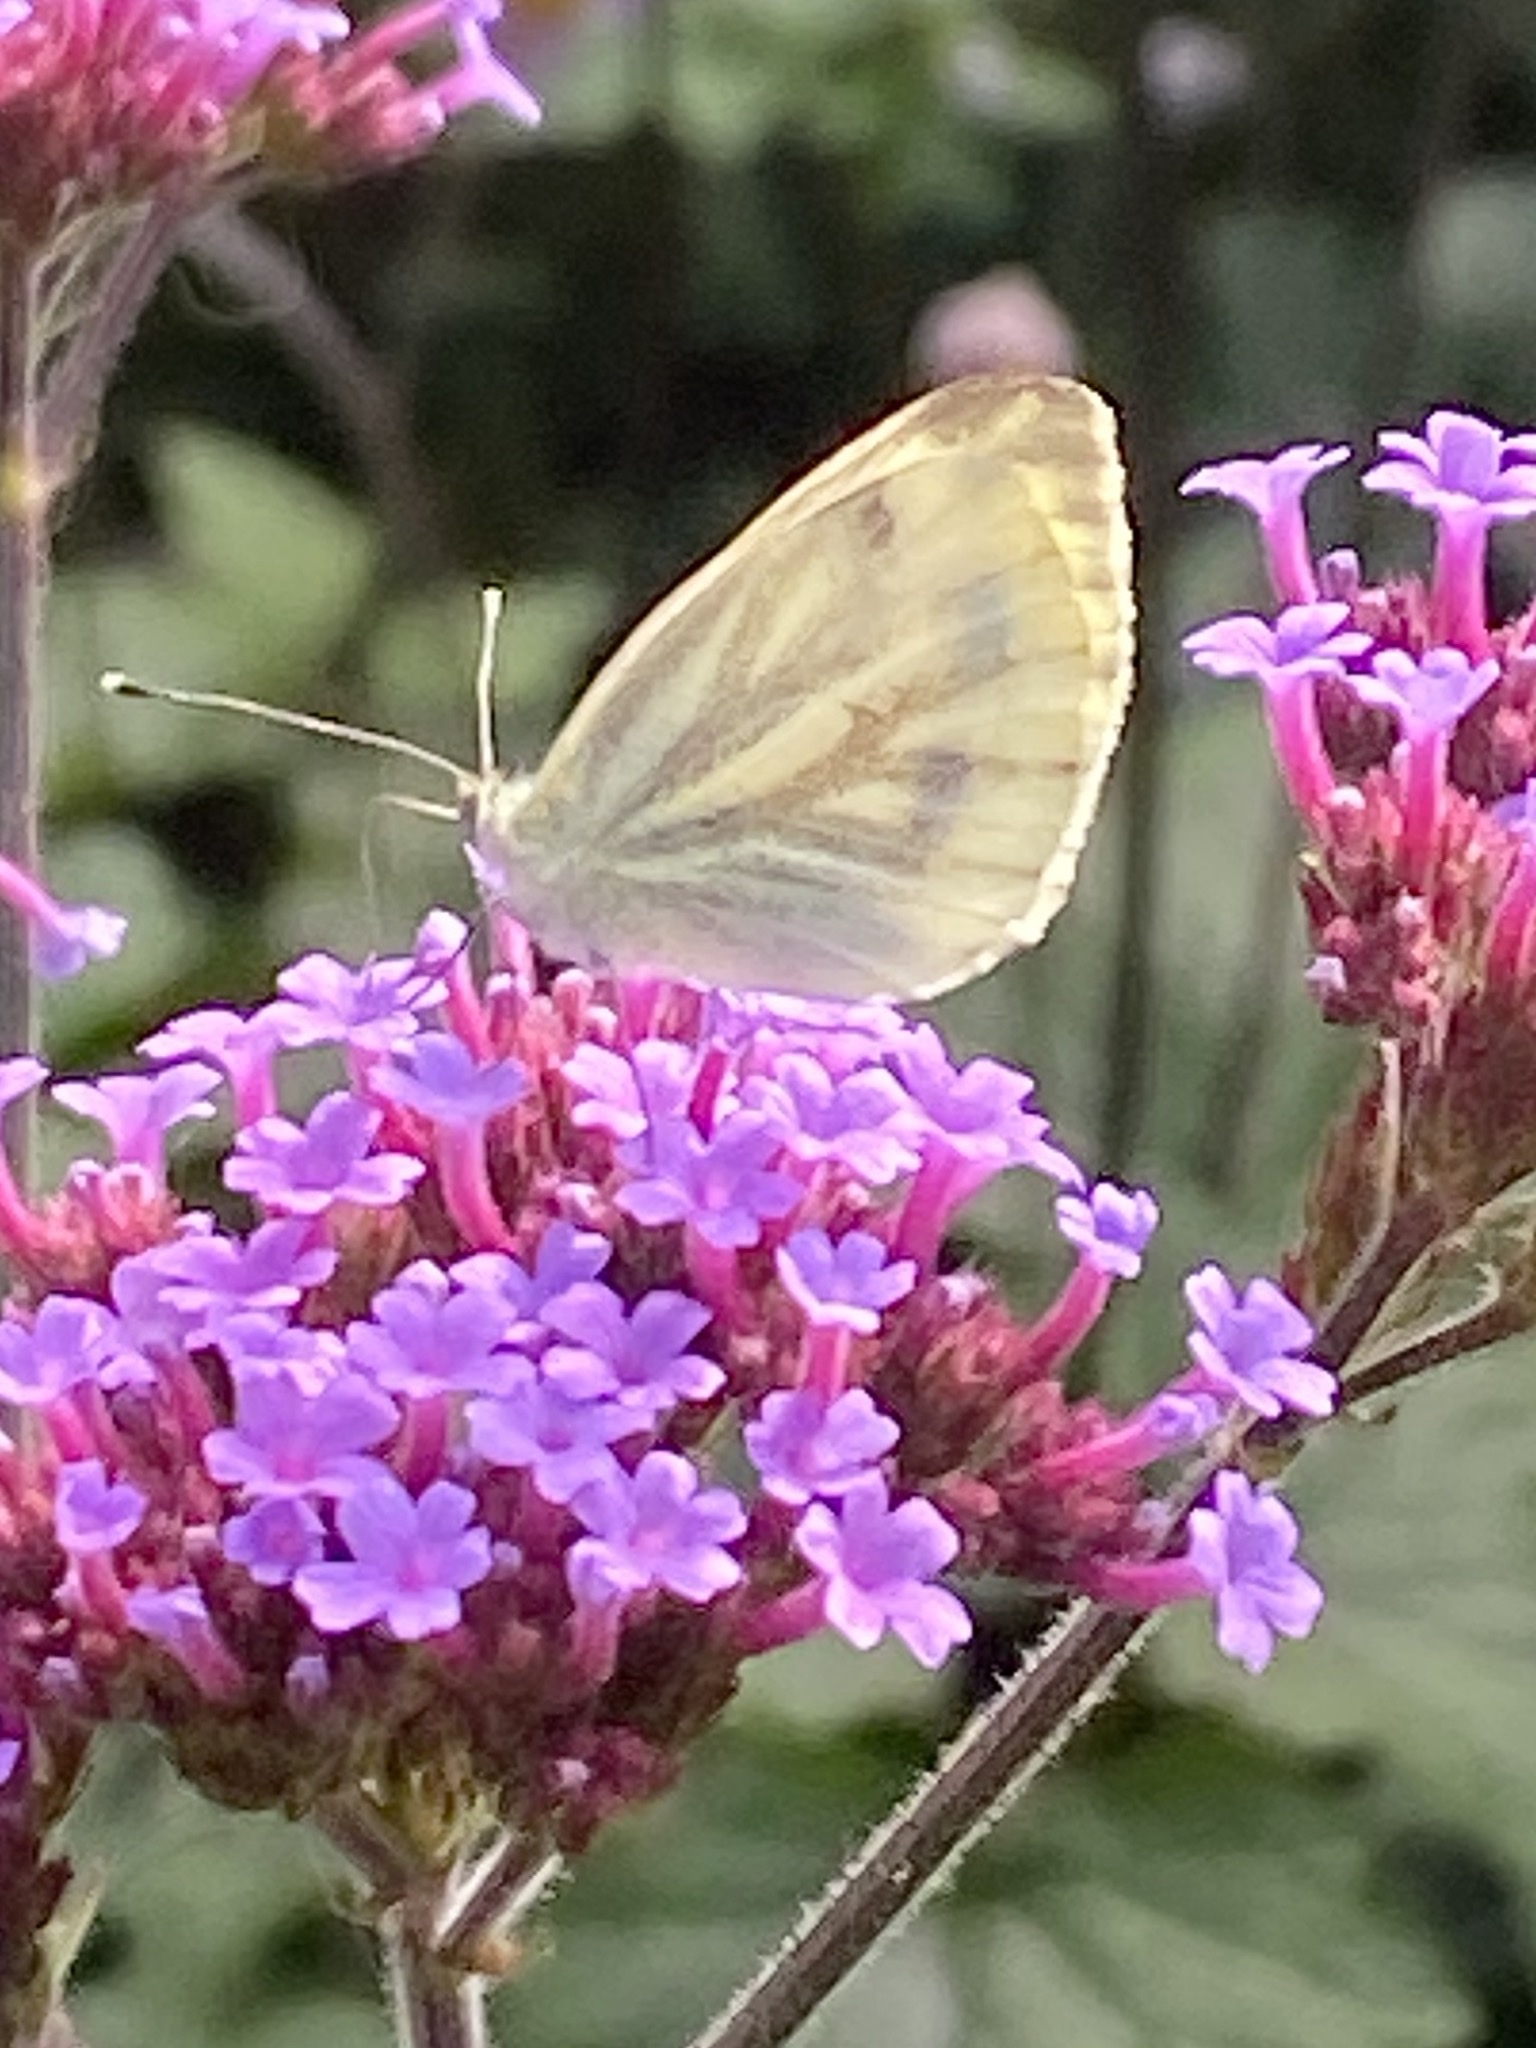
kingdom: Animalia
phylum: Arthropoda
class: Insecta
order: Lepidoptera
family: Pieridae
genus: Pieris
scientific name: Pieris napi
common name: Green-veined white
